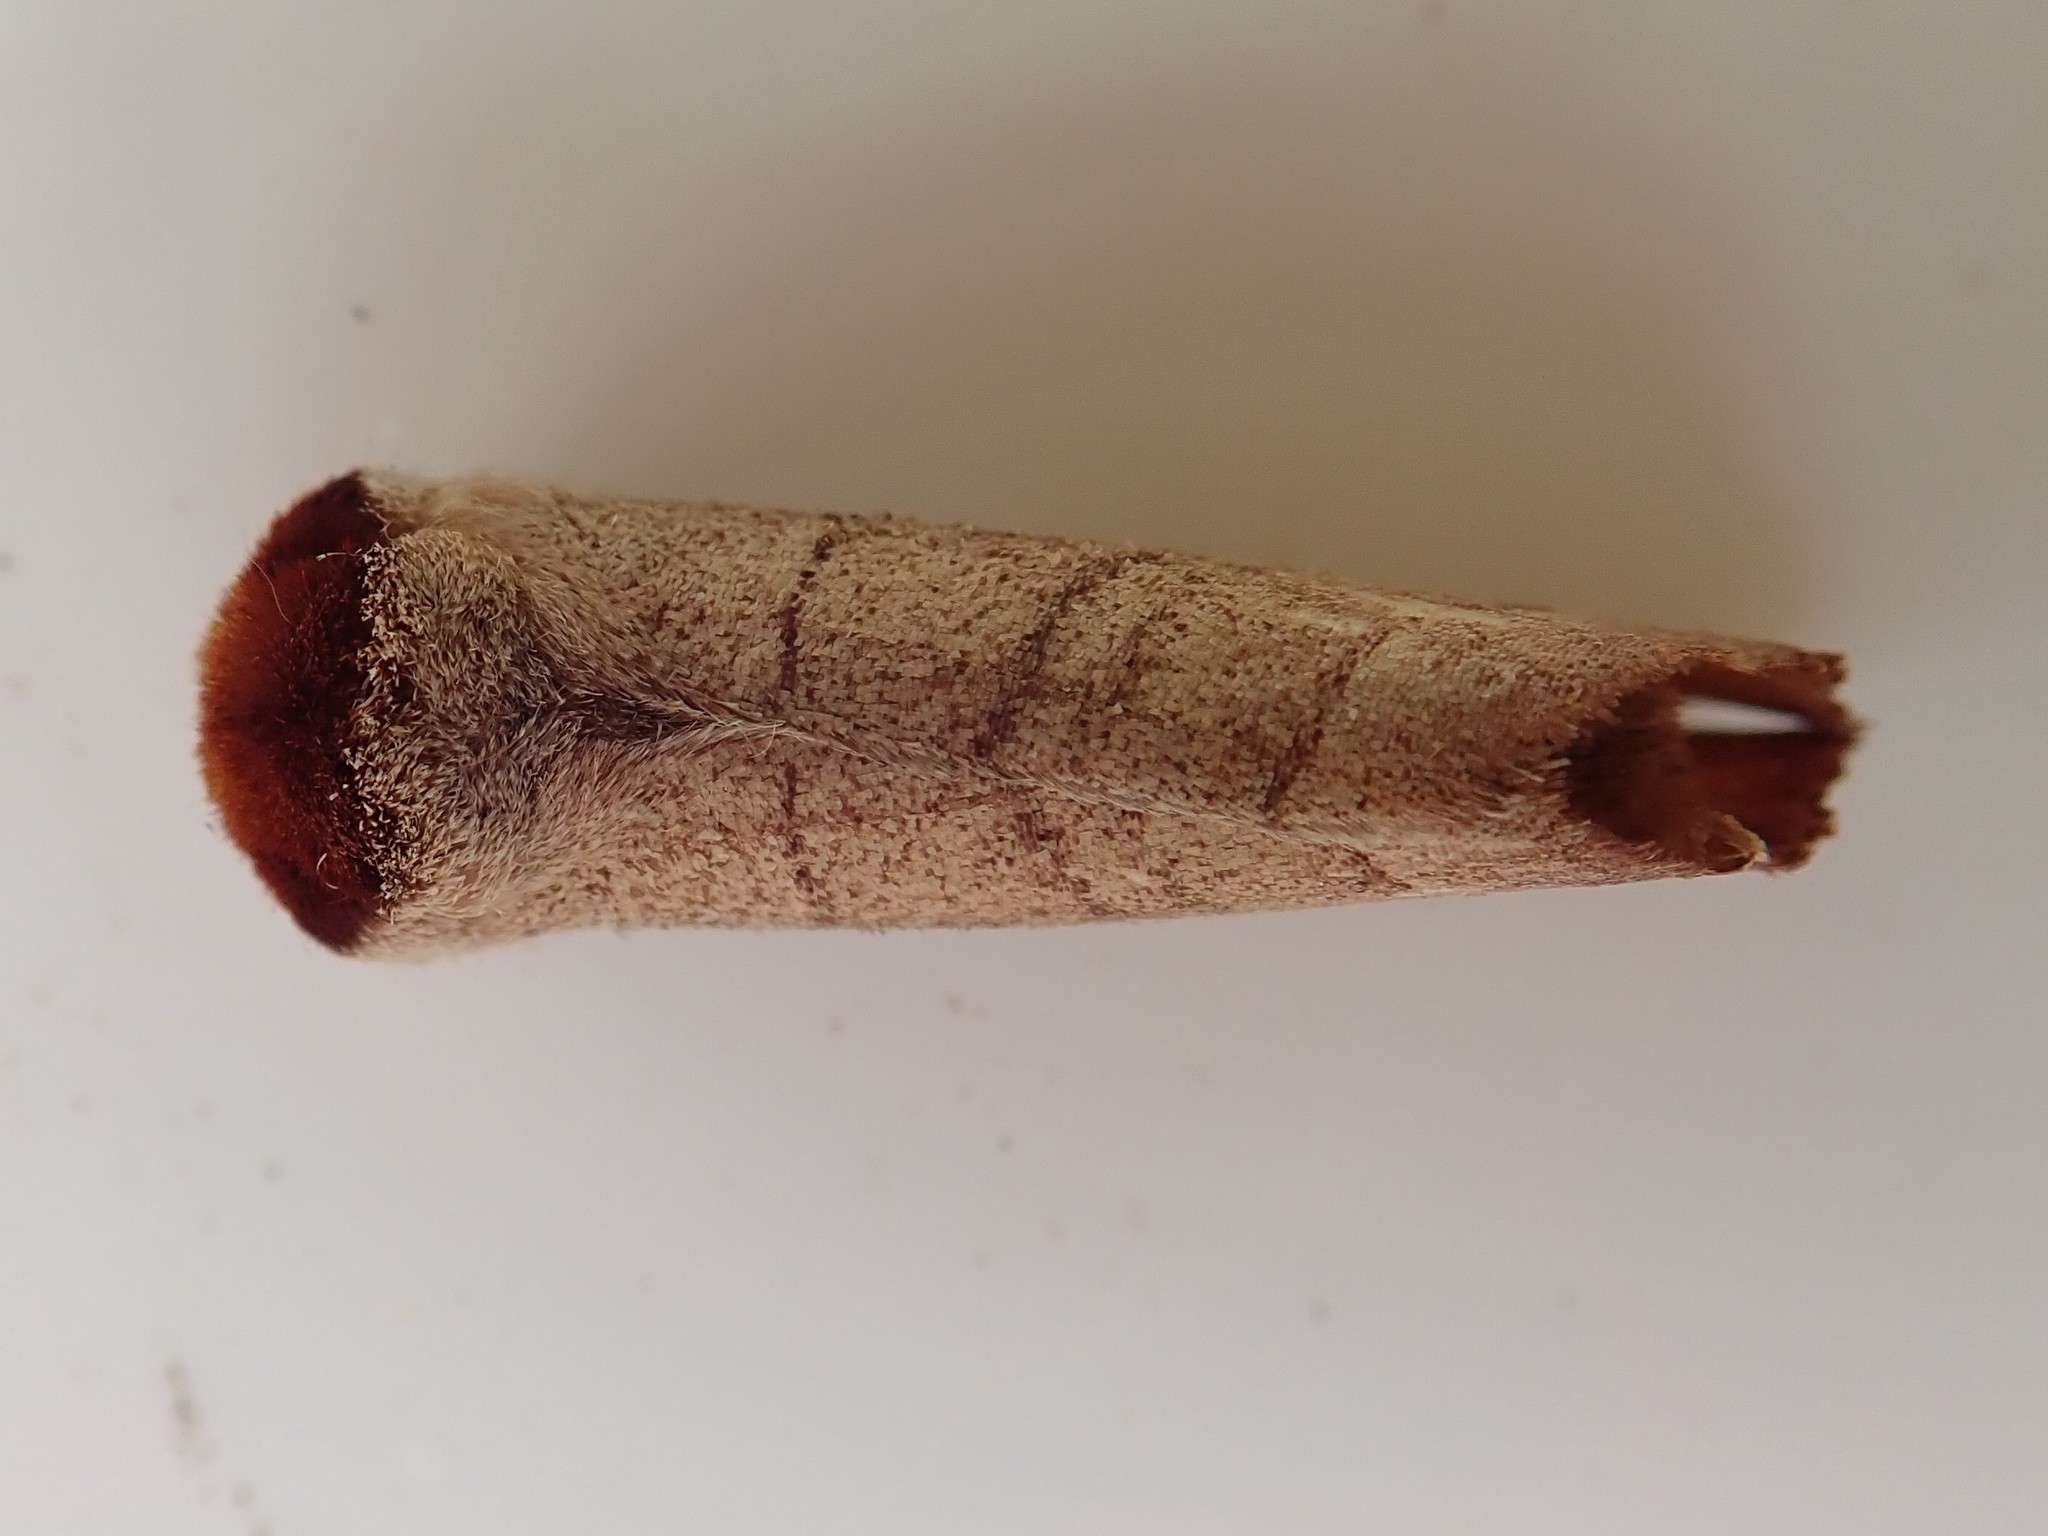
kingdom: Animalia
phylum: Arthropoda
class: Insecta
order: Lepidoptera
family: Notodontidae
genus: Datana
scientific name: Datana ministra
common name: Yellow-necked caterpillar moth
